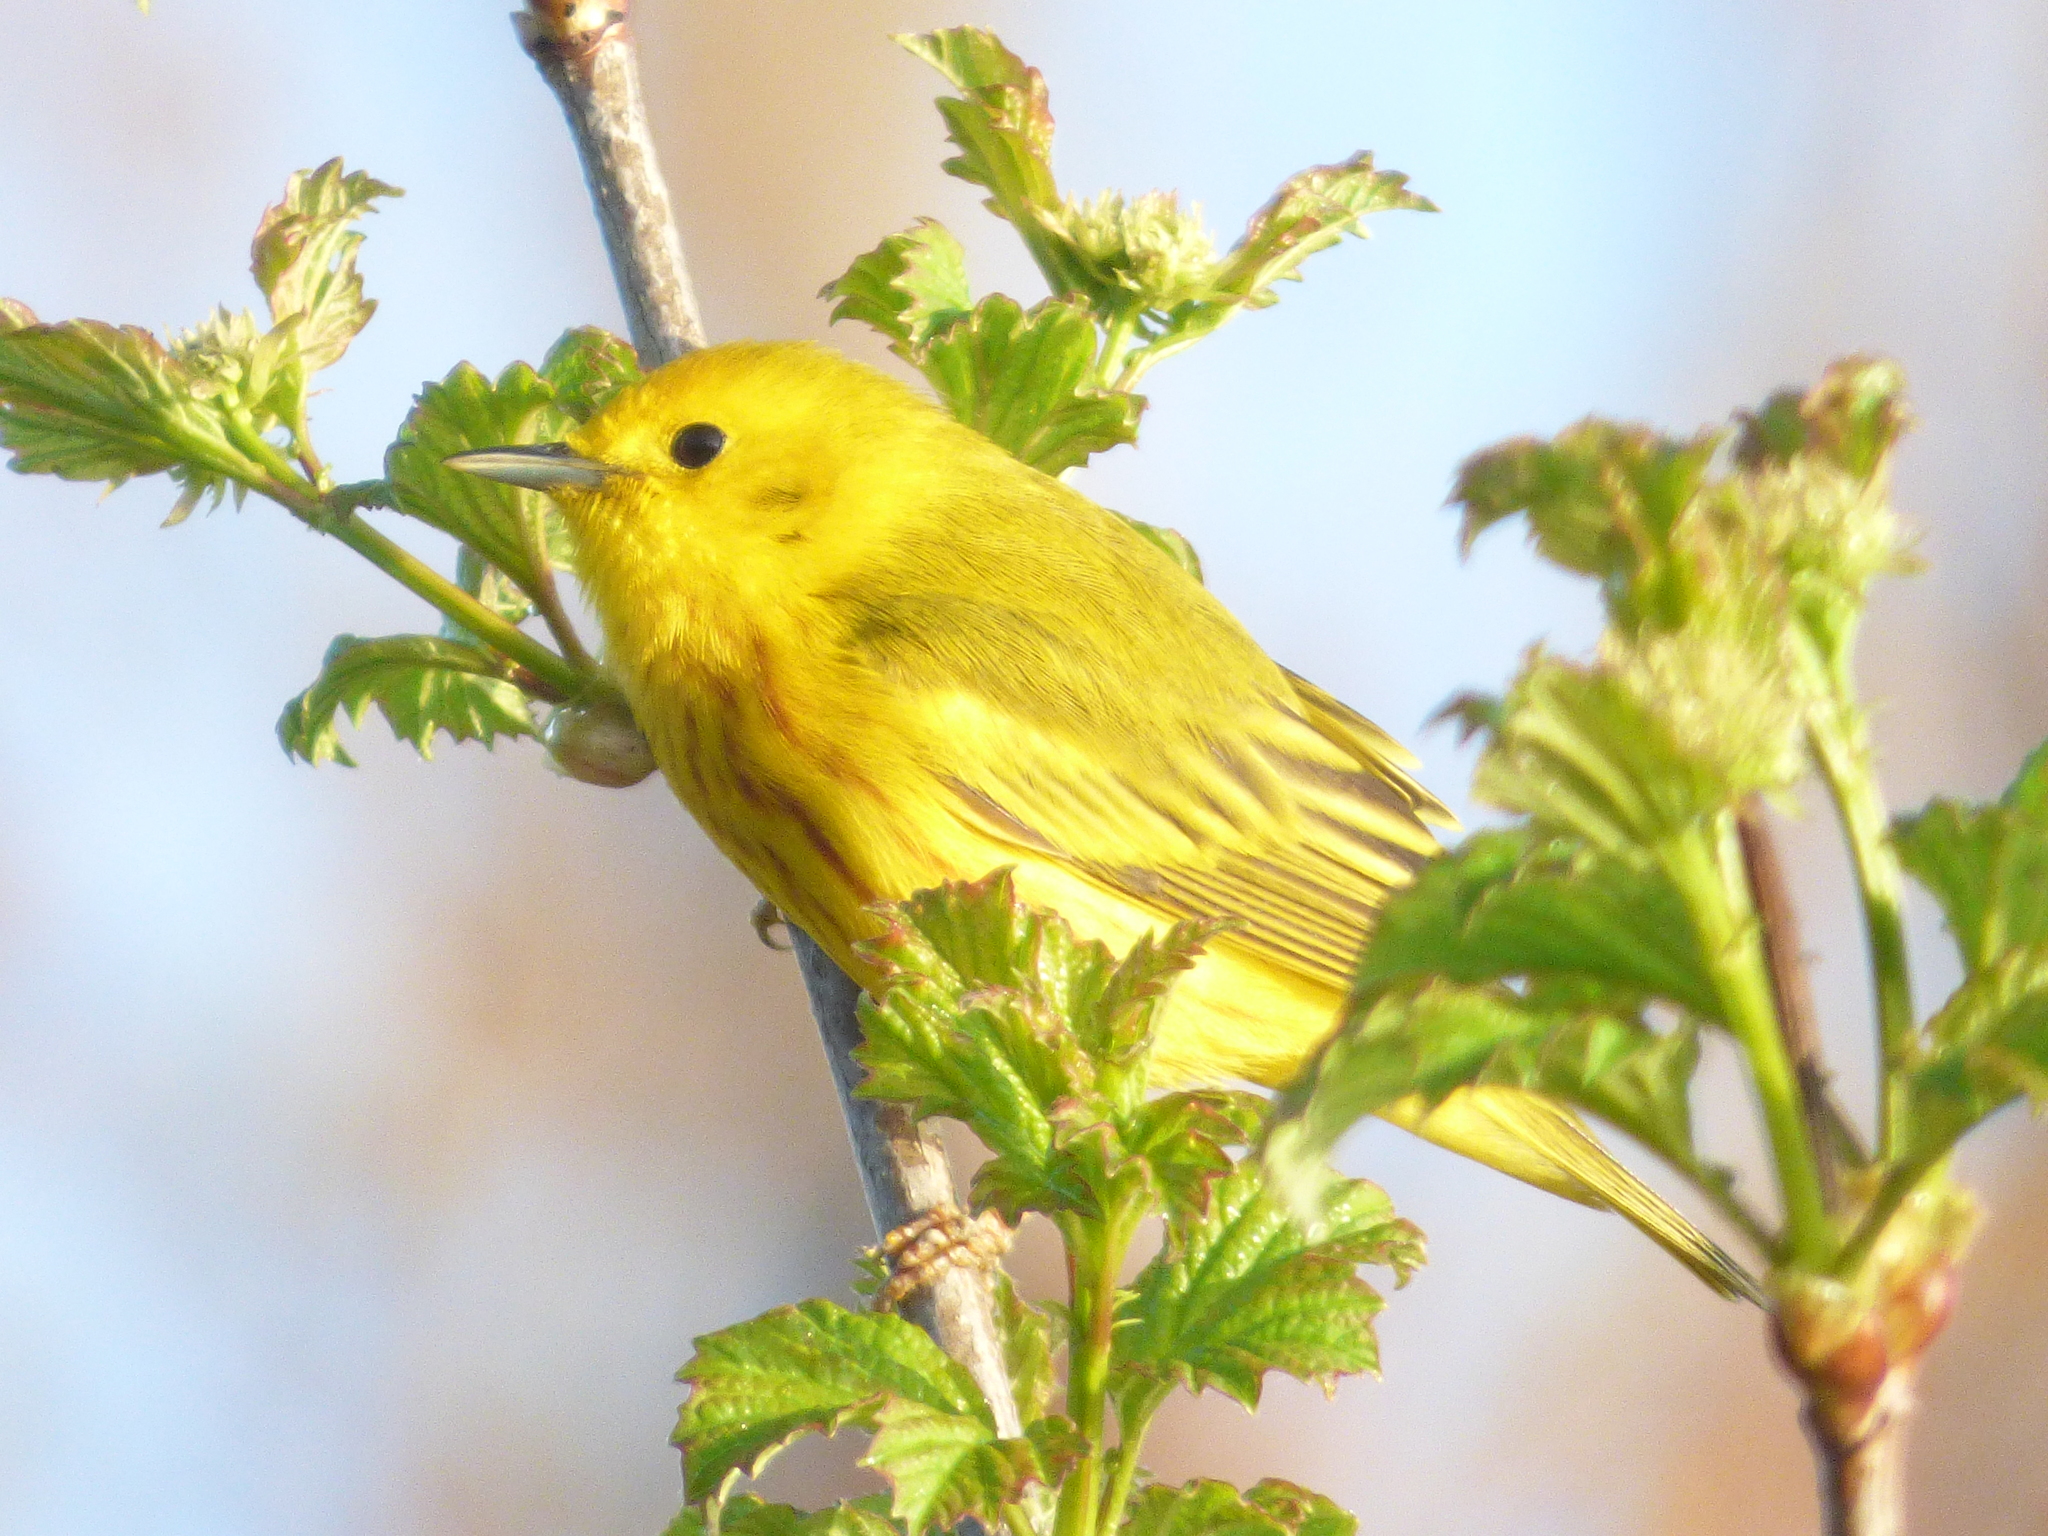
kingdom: Animalia
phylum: Chordata
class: Aves
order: Passeriformes
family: Parulidae
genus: Setophaga
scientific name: Setophaga petechia
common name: Yellow warbler
